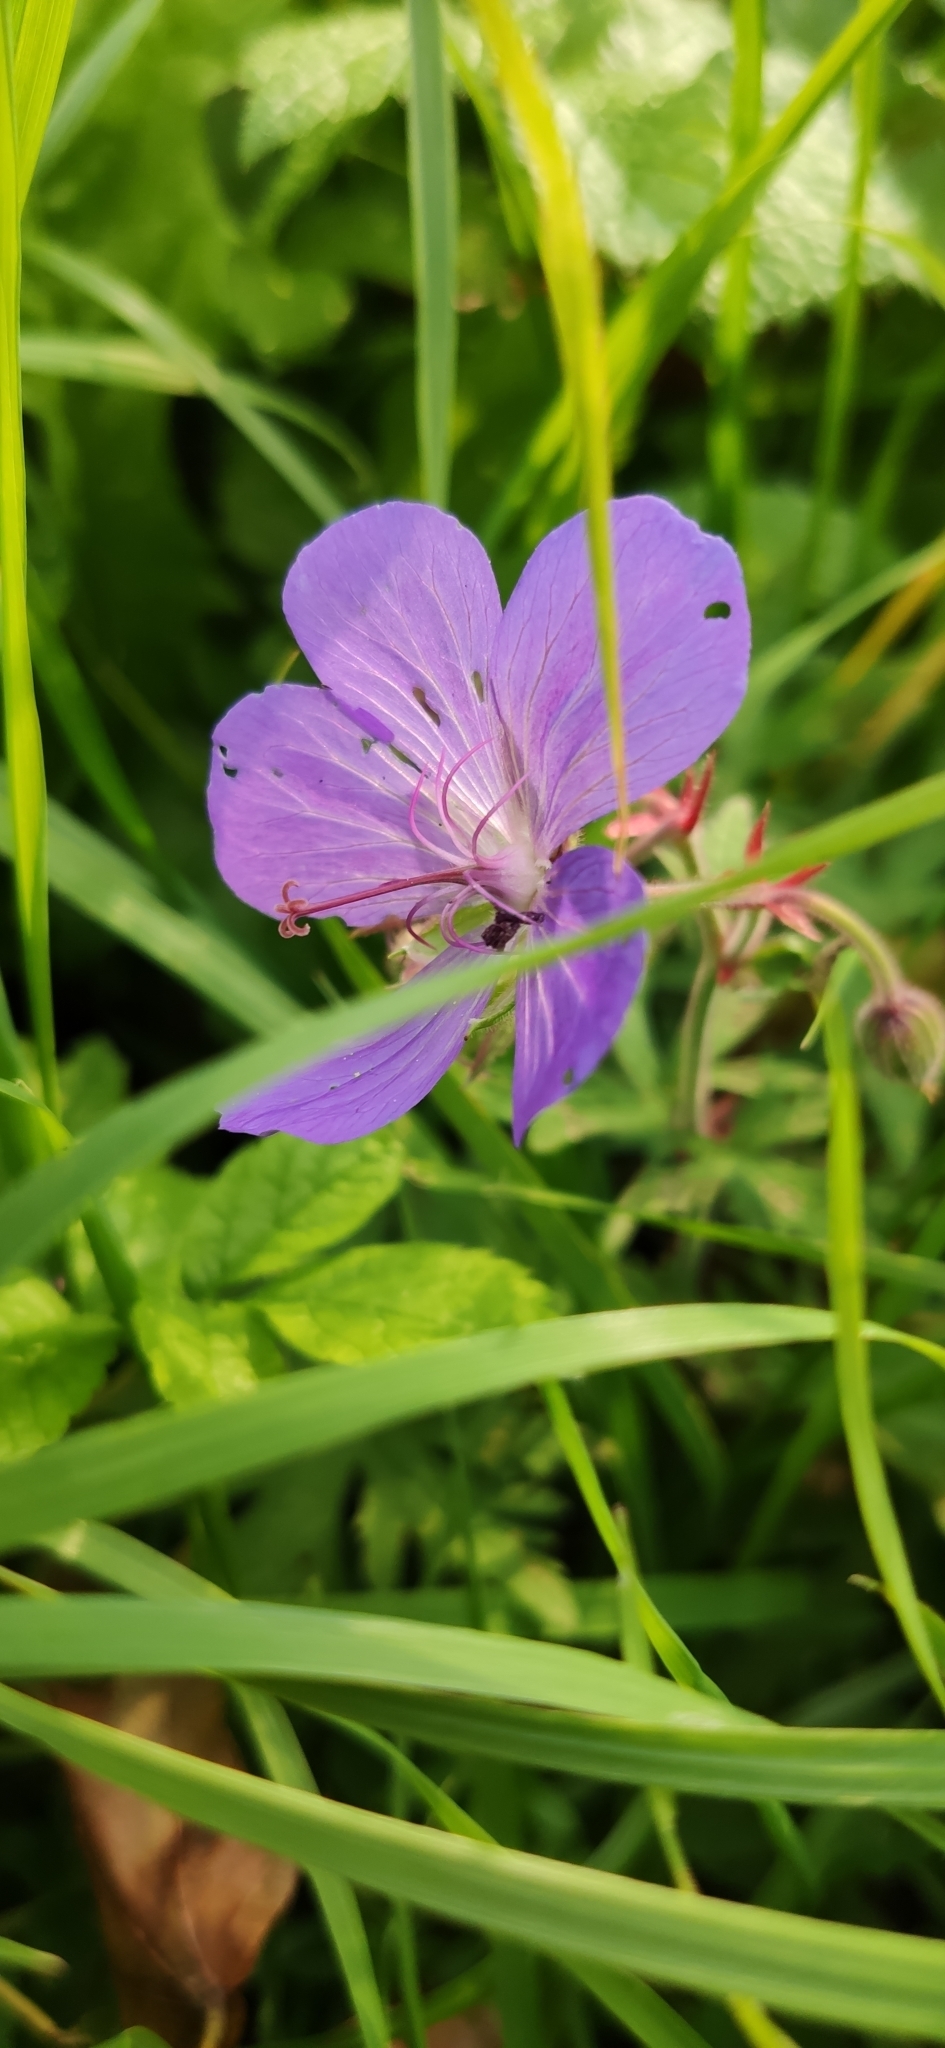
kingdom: Plantae
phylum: Tracheophyta
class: Magnoliopsida
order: Geraniales
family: Geraniaceae
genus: Geranium
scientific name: Geranium pratense
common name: Meadow crane's-bill
